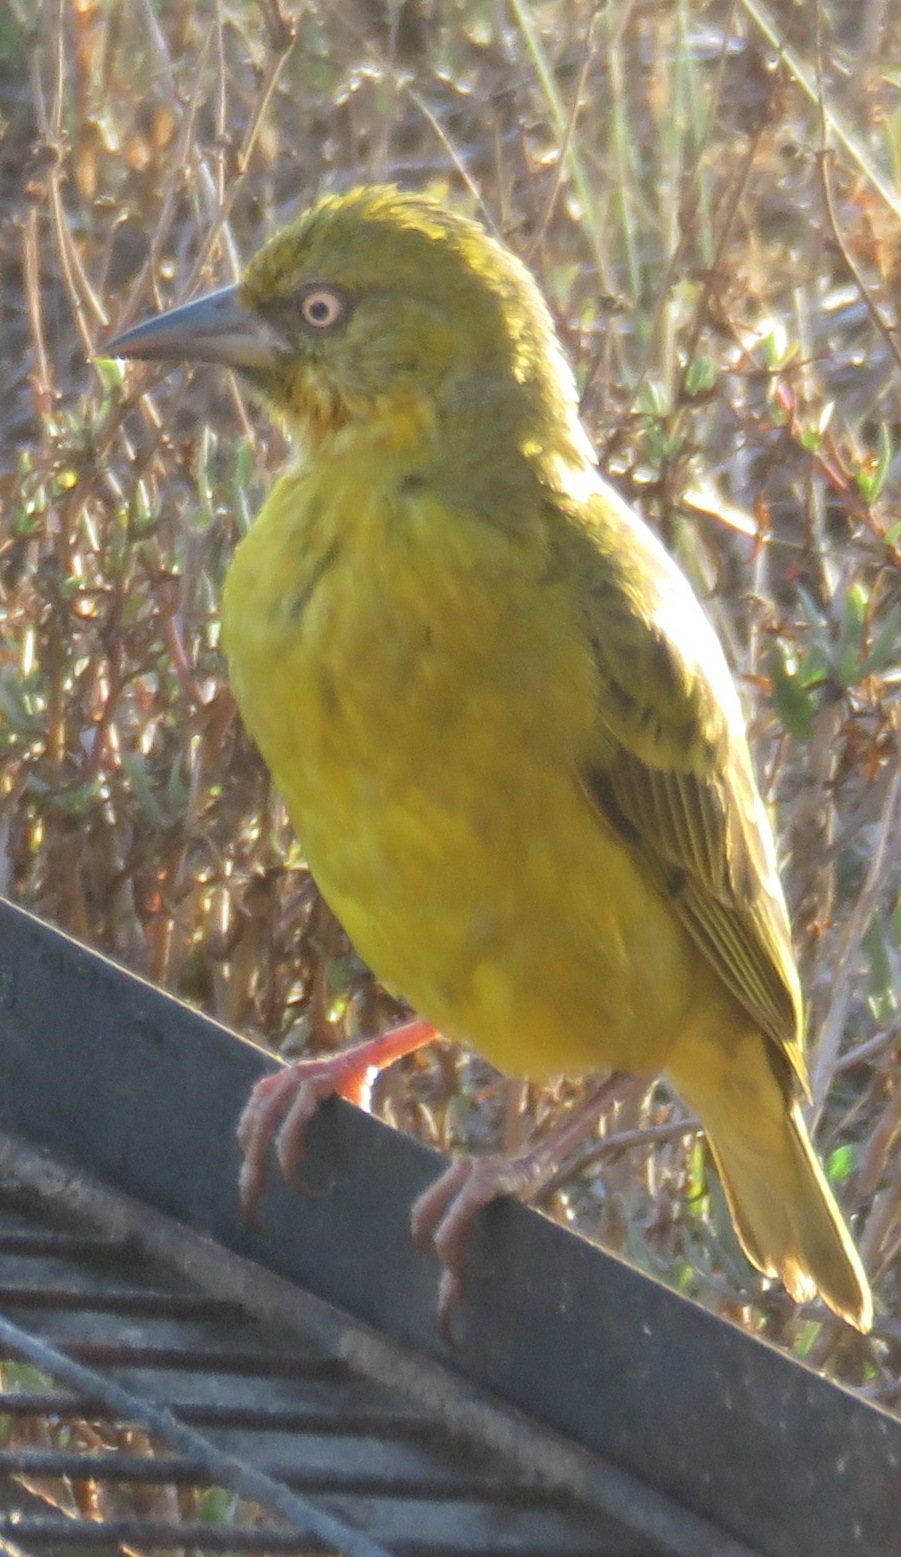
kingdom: Animalia
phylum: Chordata
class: Aves
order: Passeriformes
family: Ploceidae
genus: Ploceus
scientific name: Ploceus capensis
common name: Cape weaver
